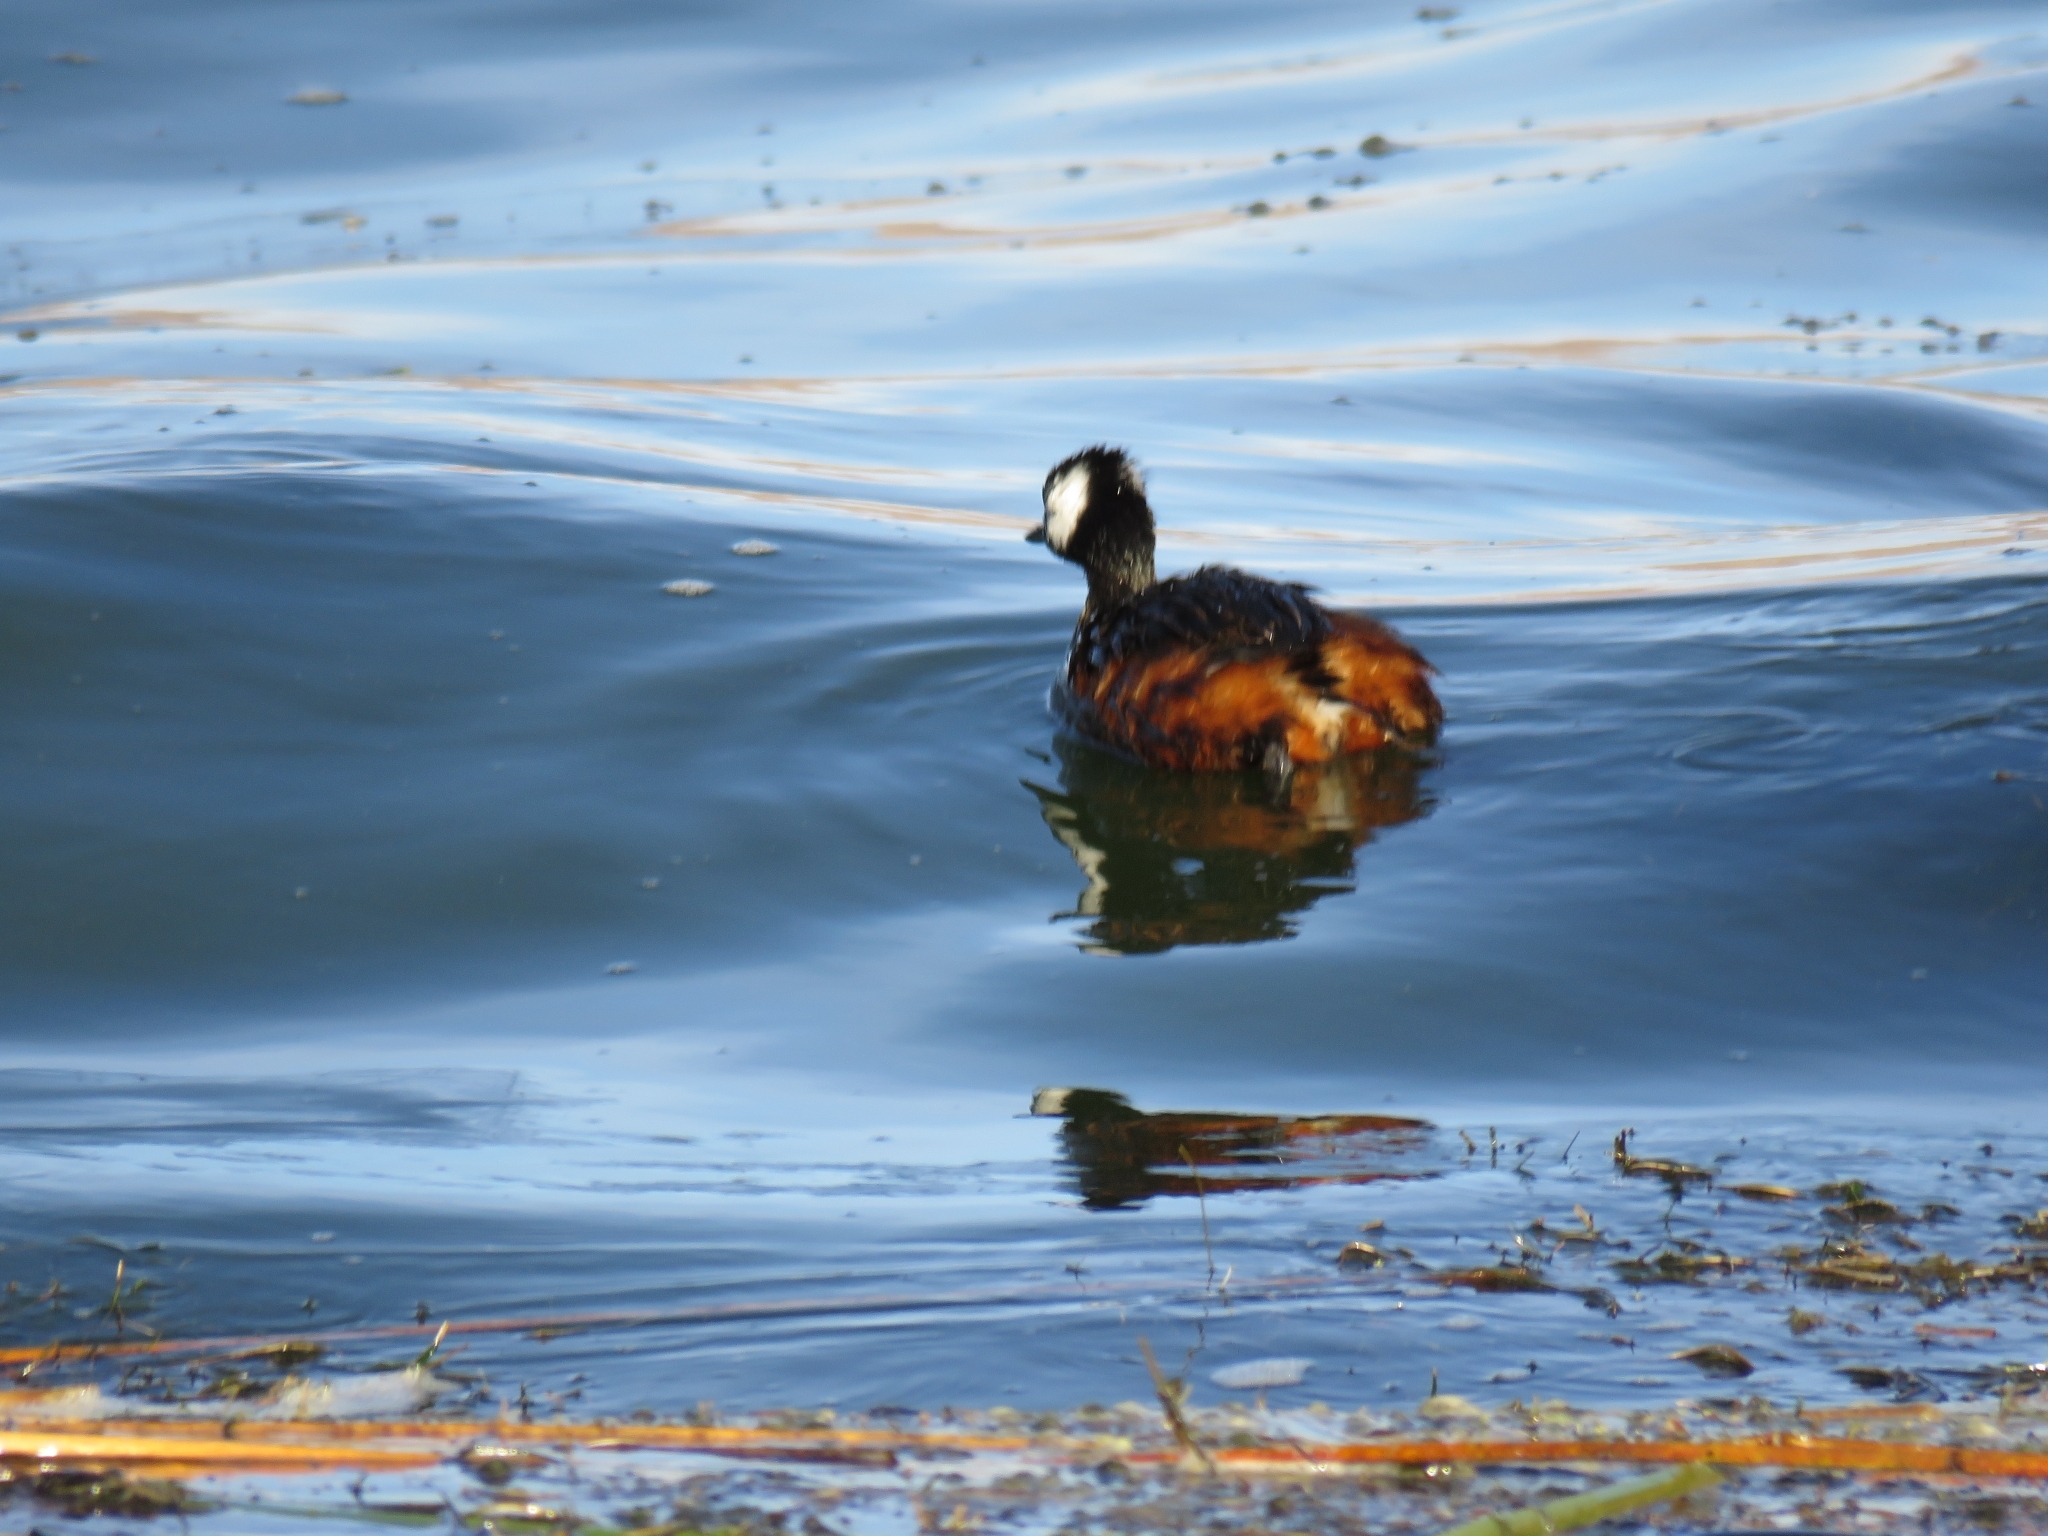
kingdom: Animalia
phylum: Chordata
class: Aves
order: Podicipediformes
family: Podicipedidae
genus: Rollandia
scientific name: Rollandia rolland
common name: White-tufted grebe
